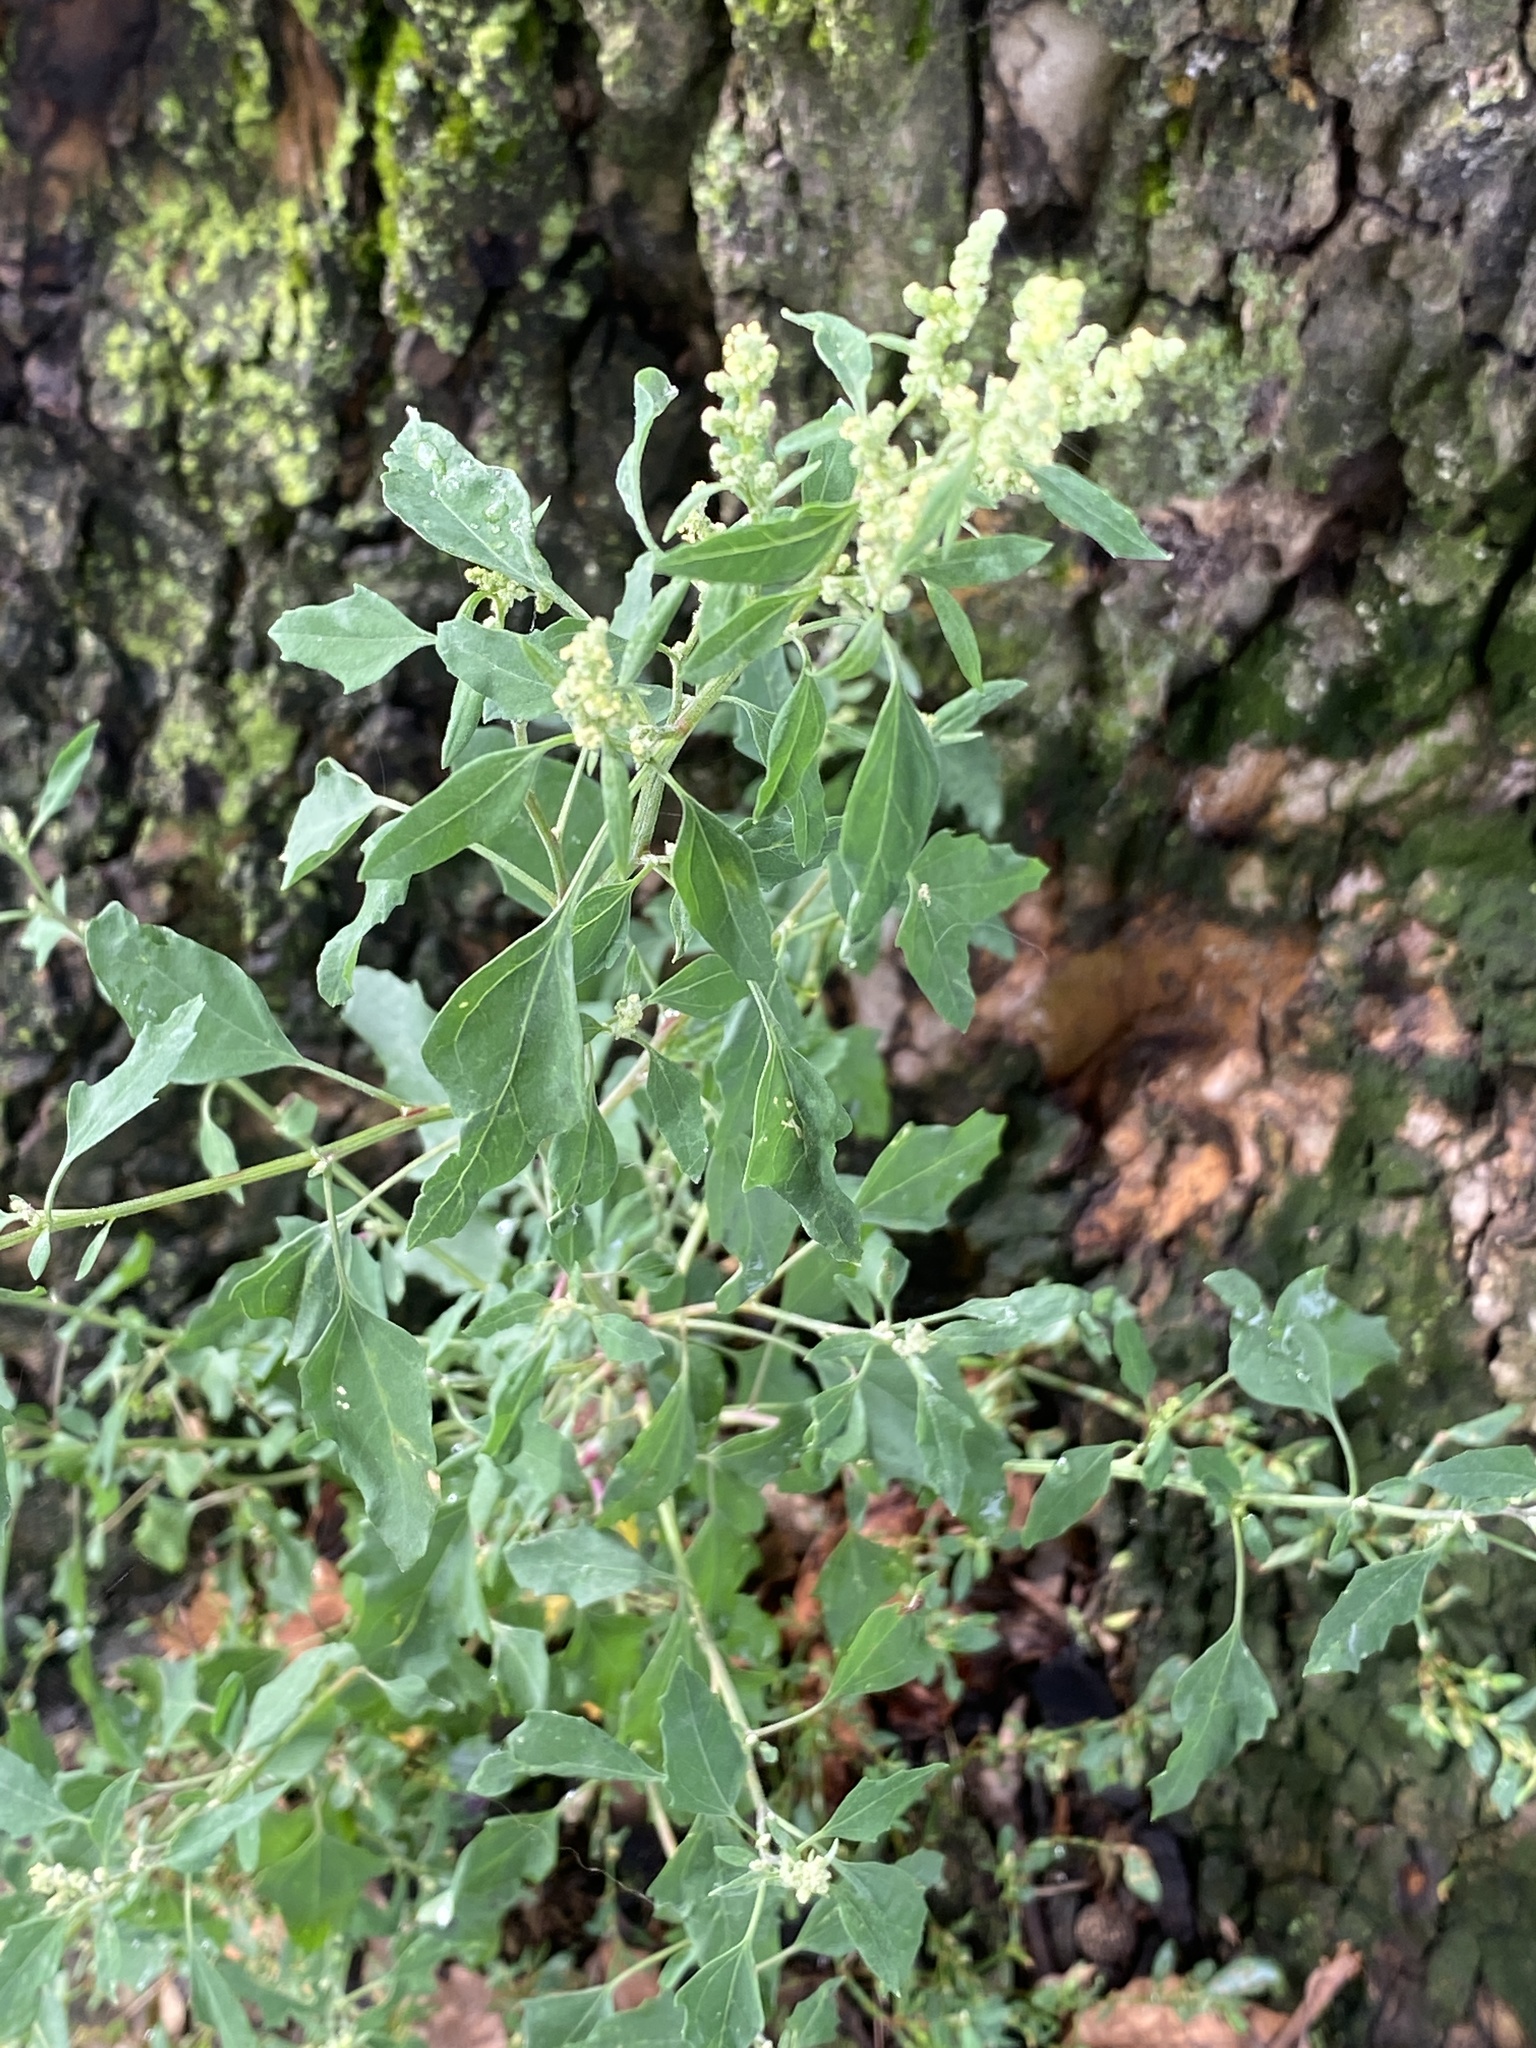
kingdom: Plantae
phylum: Tracheophyta
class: Magnoliopsida
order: Caryophyllales
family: Amaranthaceae
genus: Chenopodium
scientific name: Chenopodium album
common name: Fat-hen
